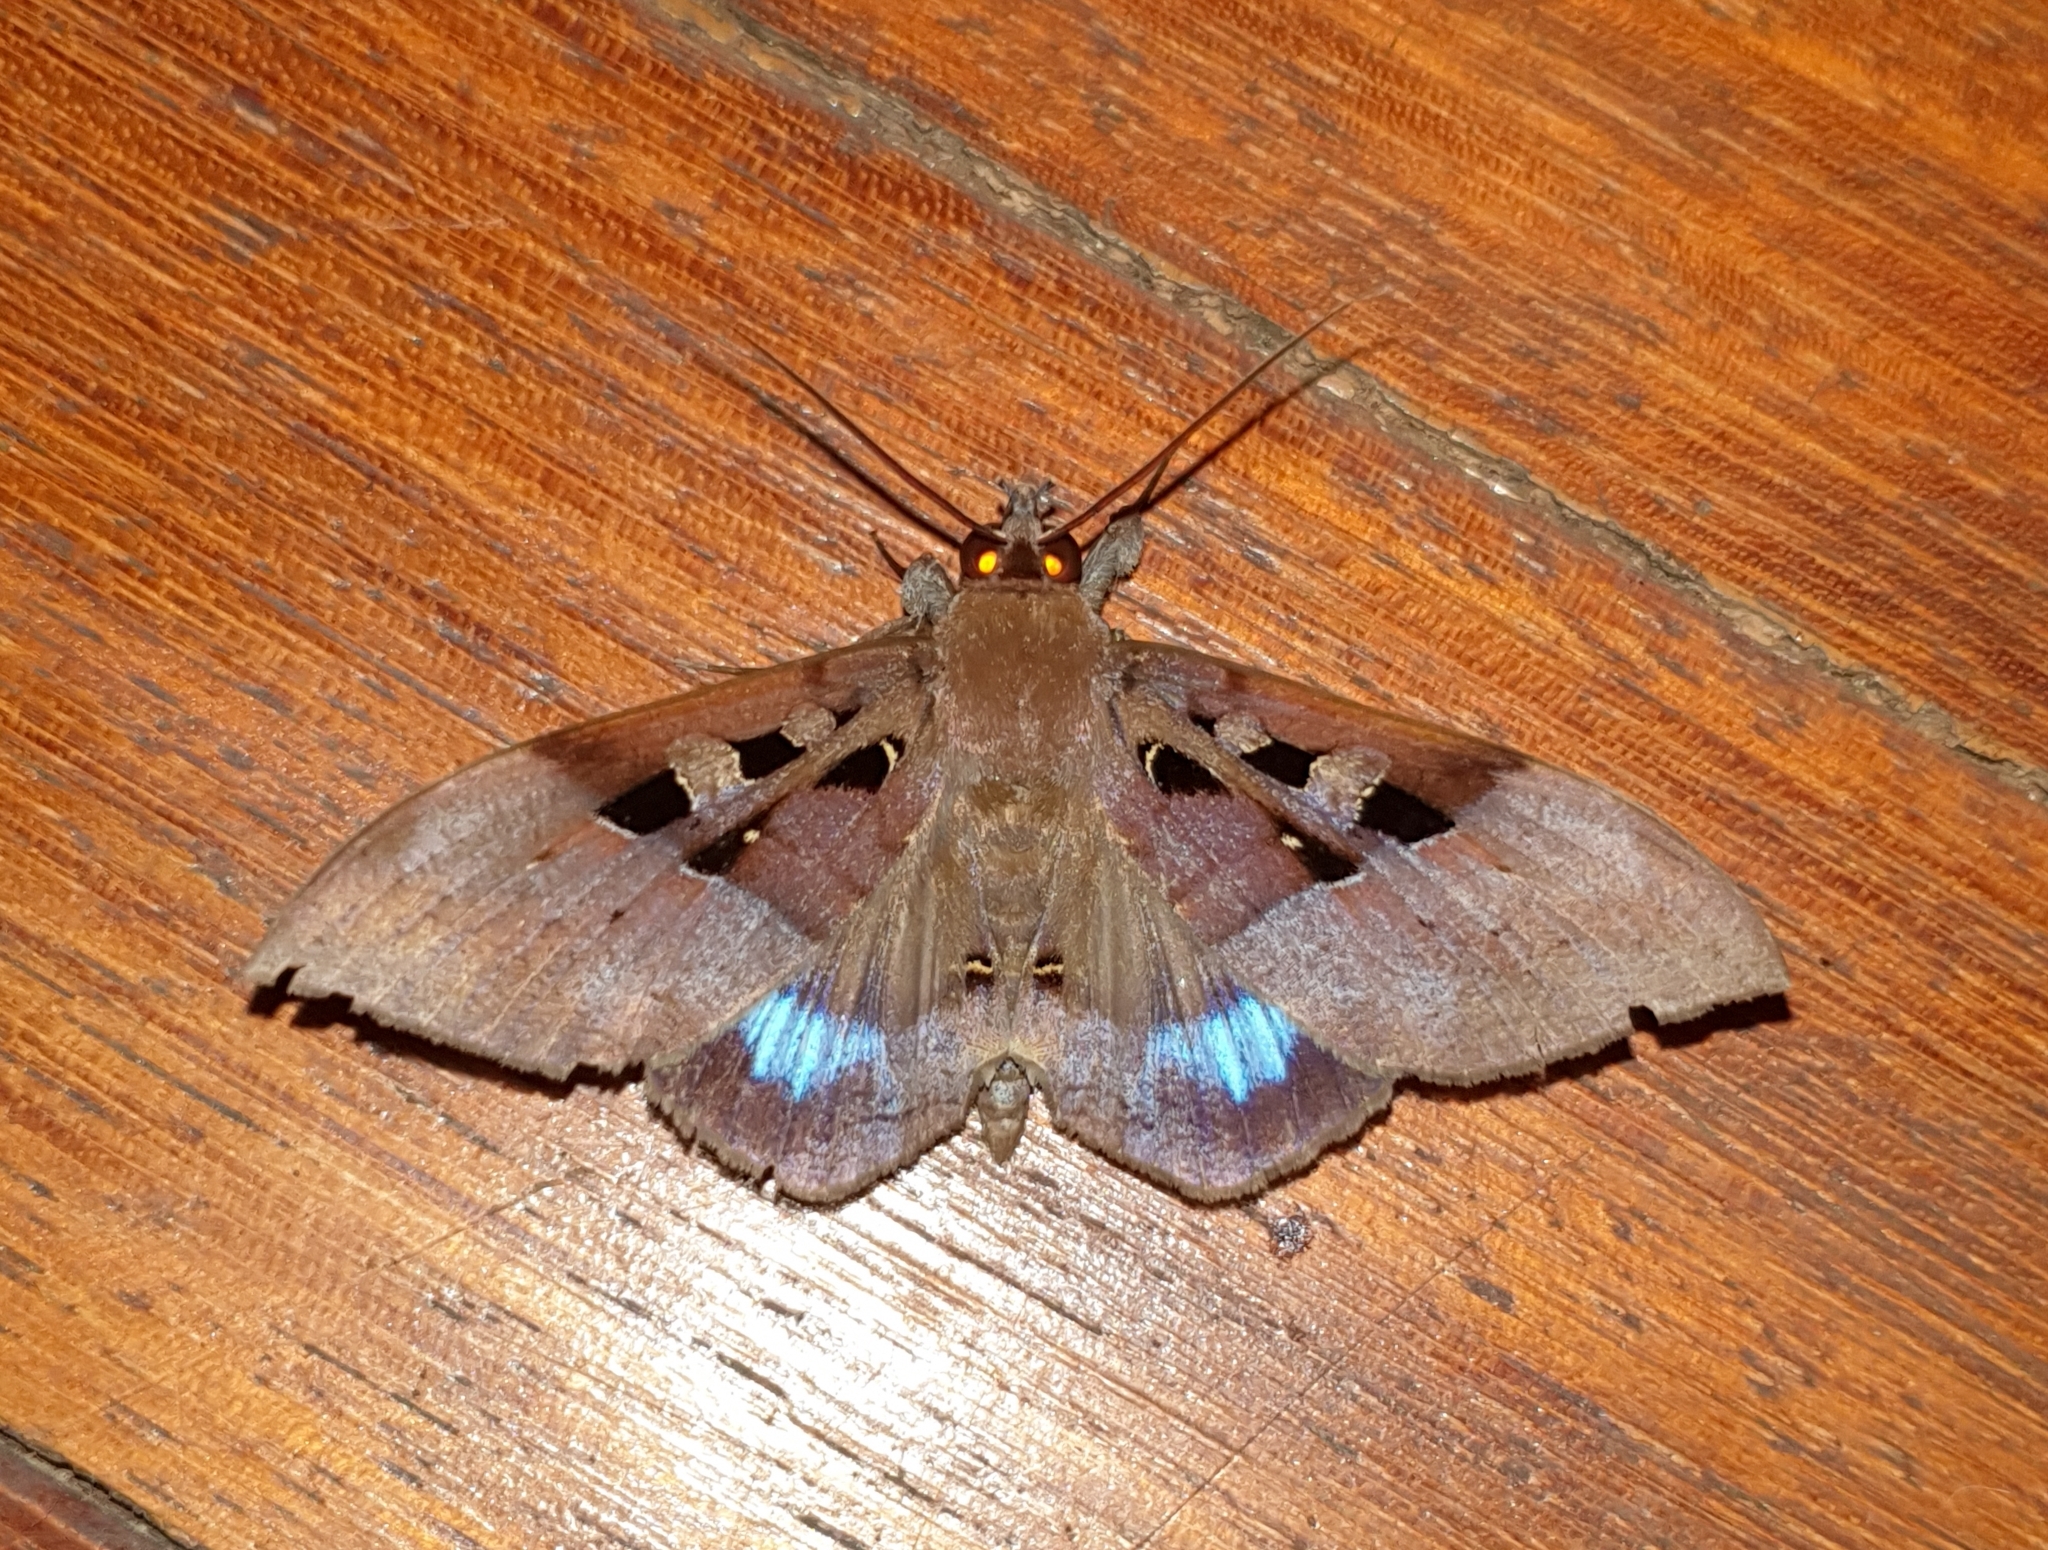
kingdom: Animalia
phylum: Arthropoda
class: Insecta
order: Lepidoptera
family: Erebidae
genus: Ischyja
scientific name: Ischyja manlia
